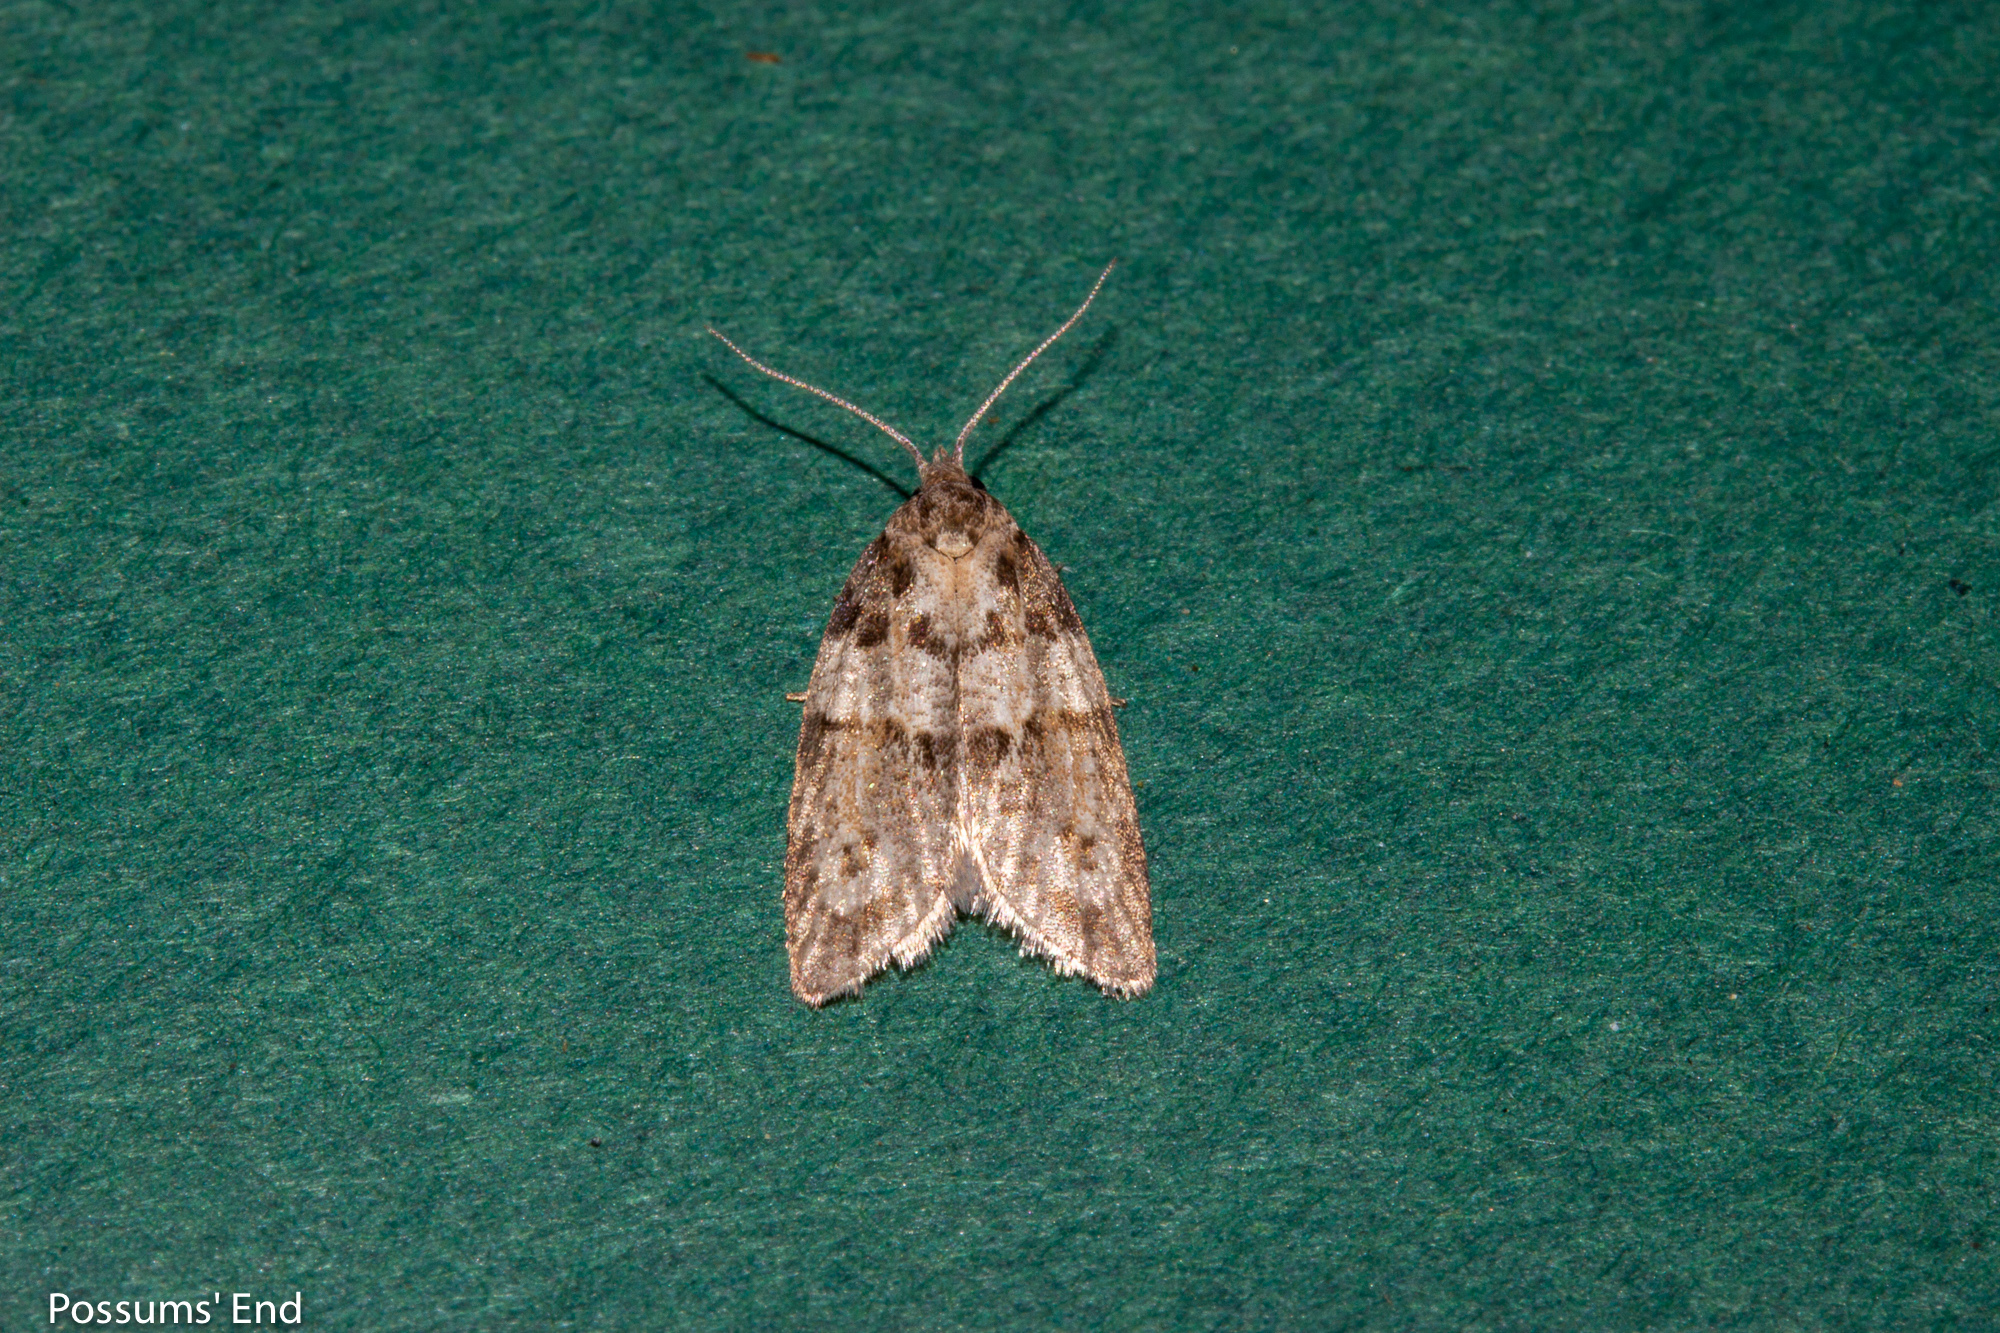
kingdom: Animalia
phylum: Arthropoda
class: Insecta
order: Lepidoptera
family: Tortricidae
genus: Prothelymna
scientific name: Prothelymna antiquana
